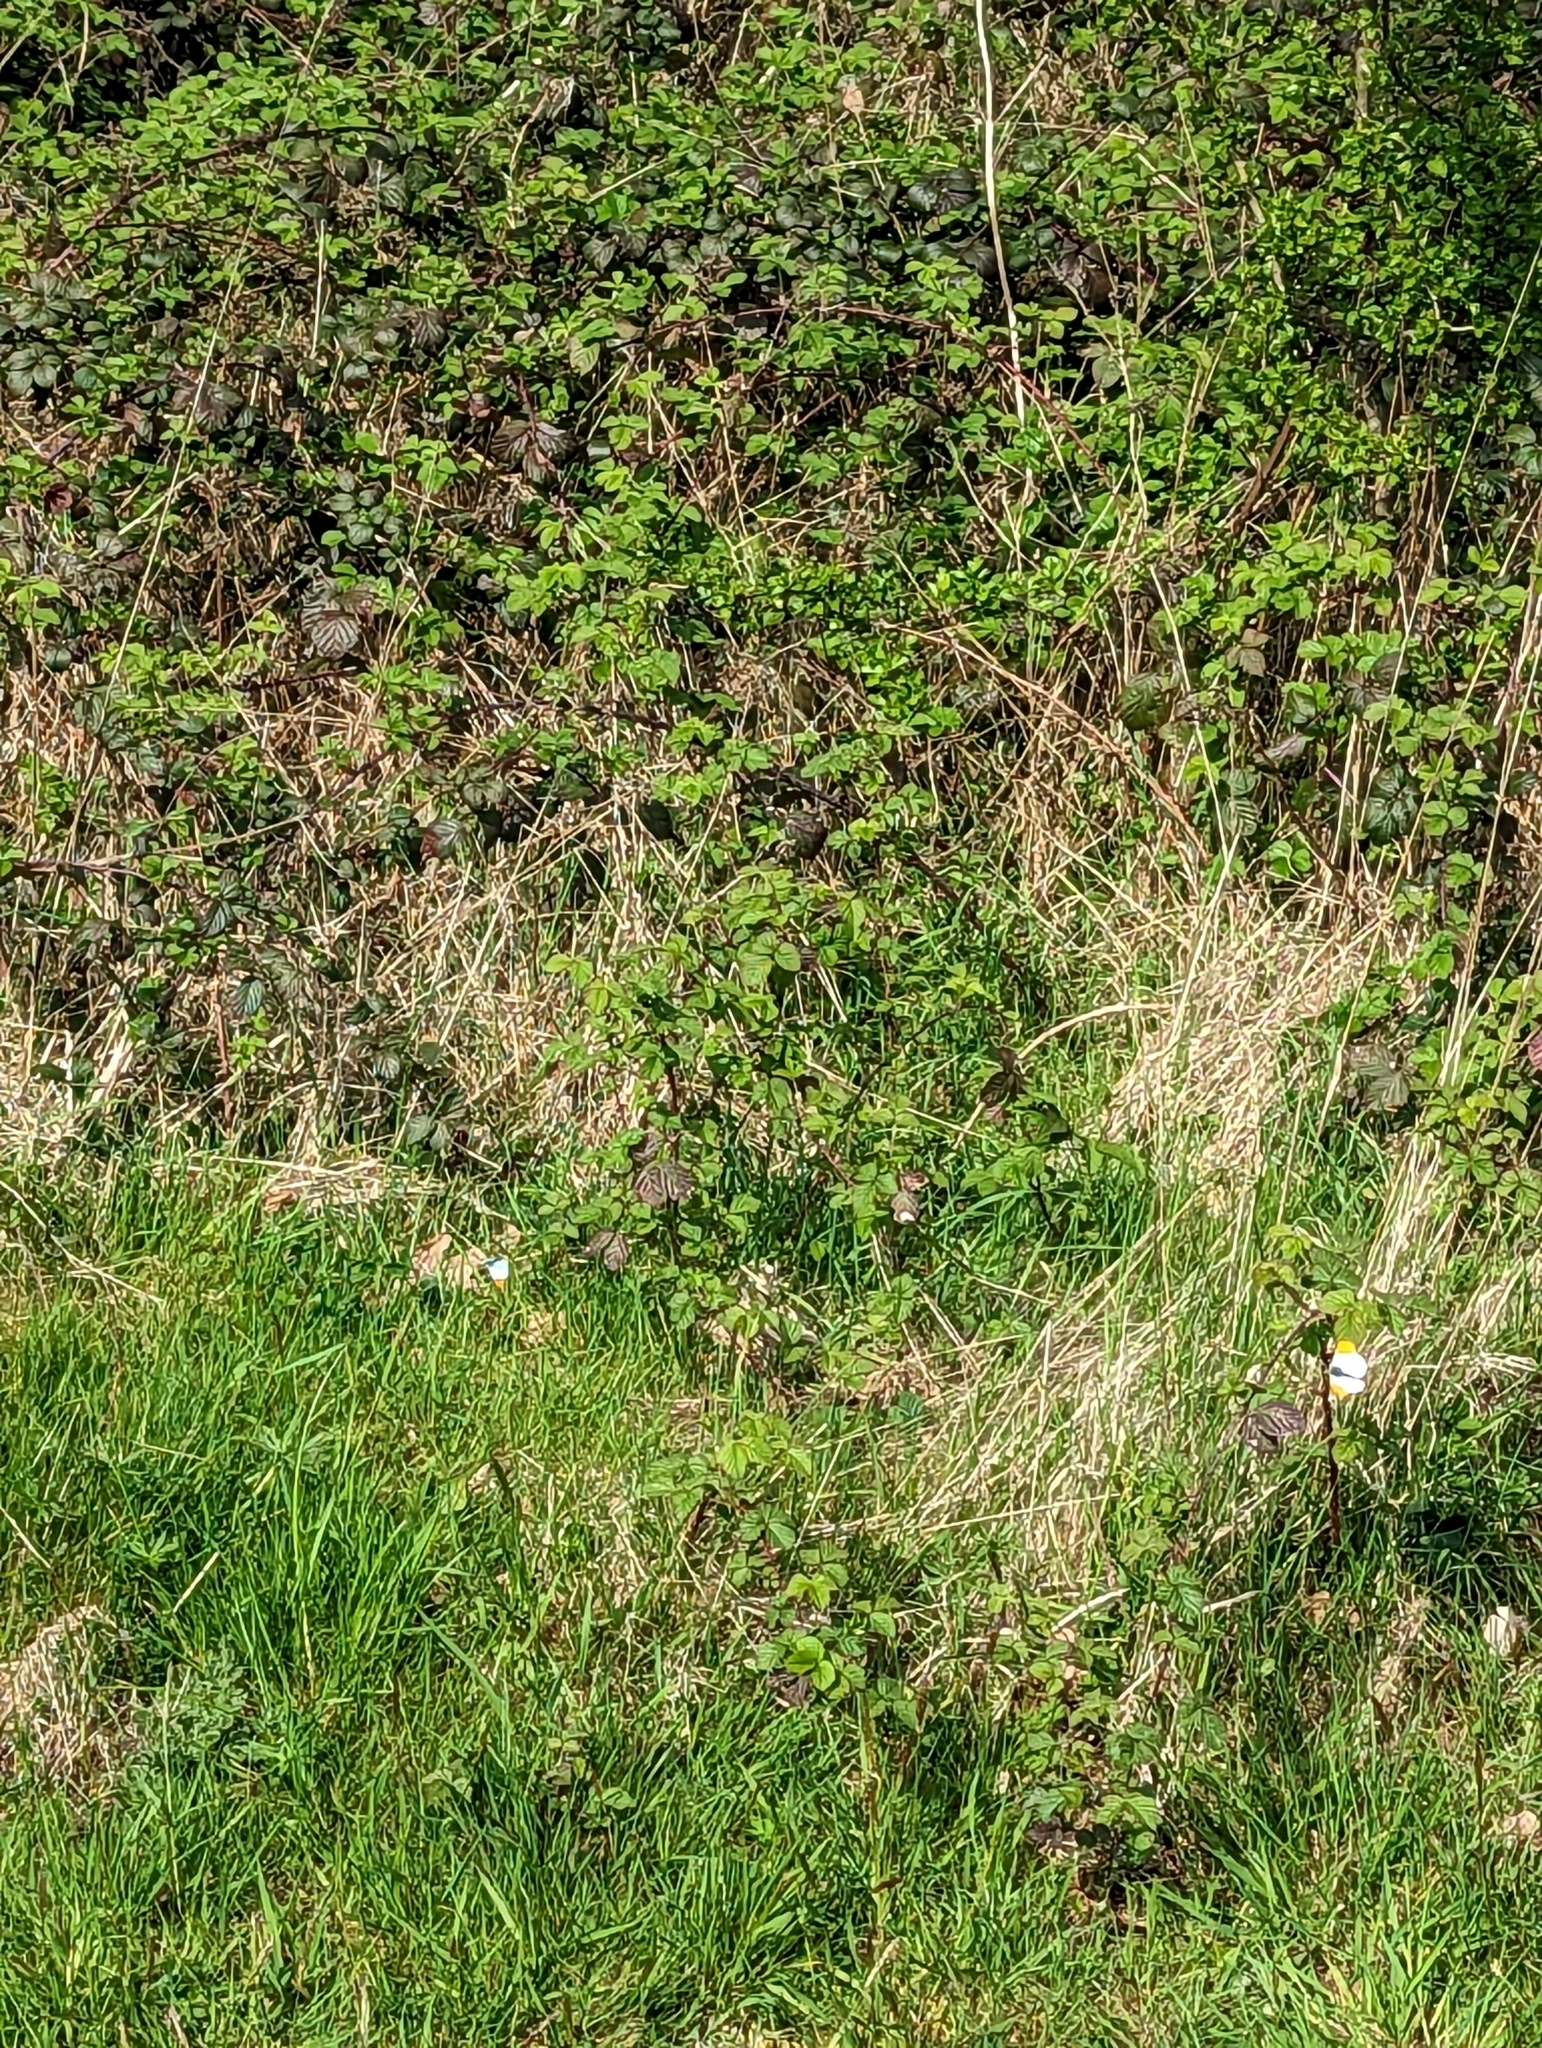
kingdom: Animalia
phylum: Arthropoda
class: Insecta
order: Lepidoptera
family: Pieridae
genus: Anthocharis
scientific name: Anthocharis cardamines
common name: Orange-tip
